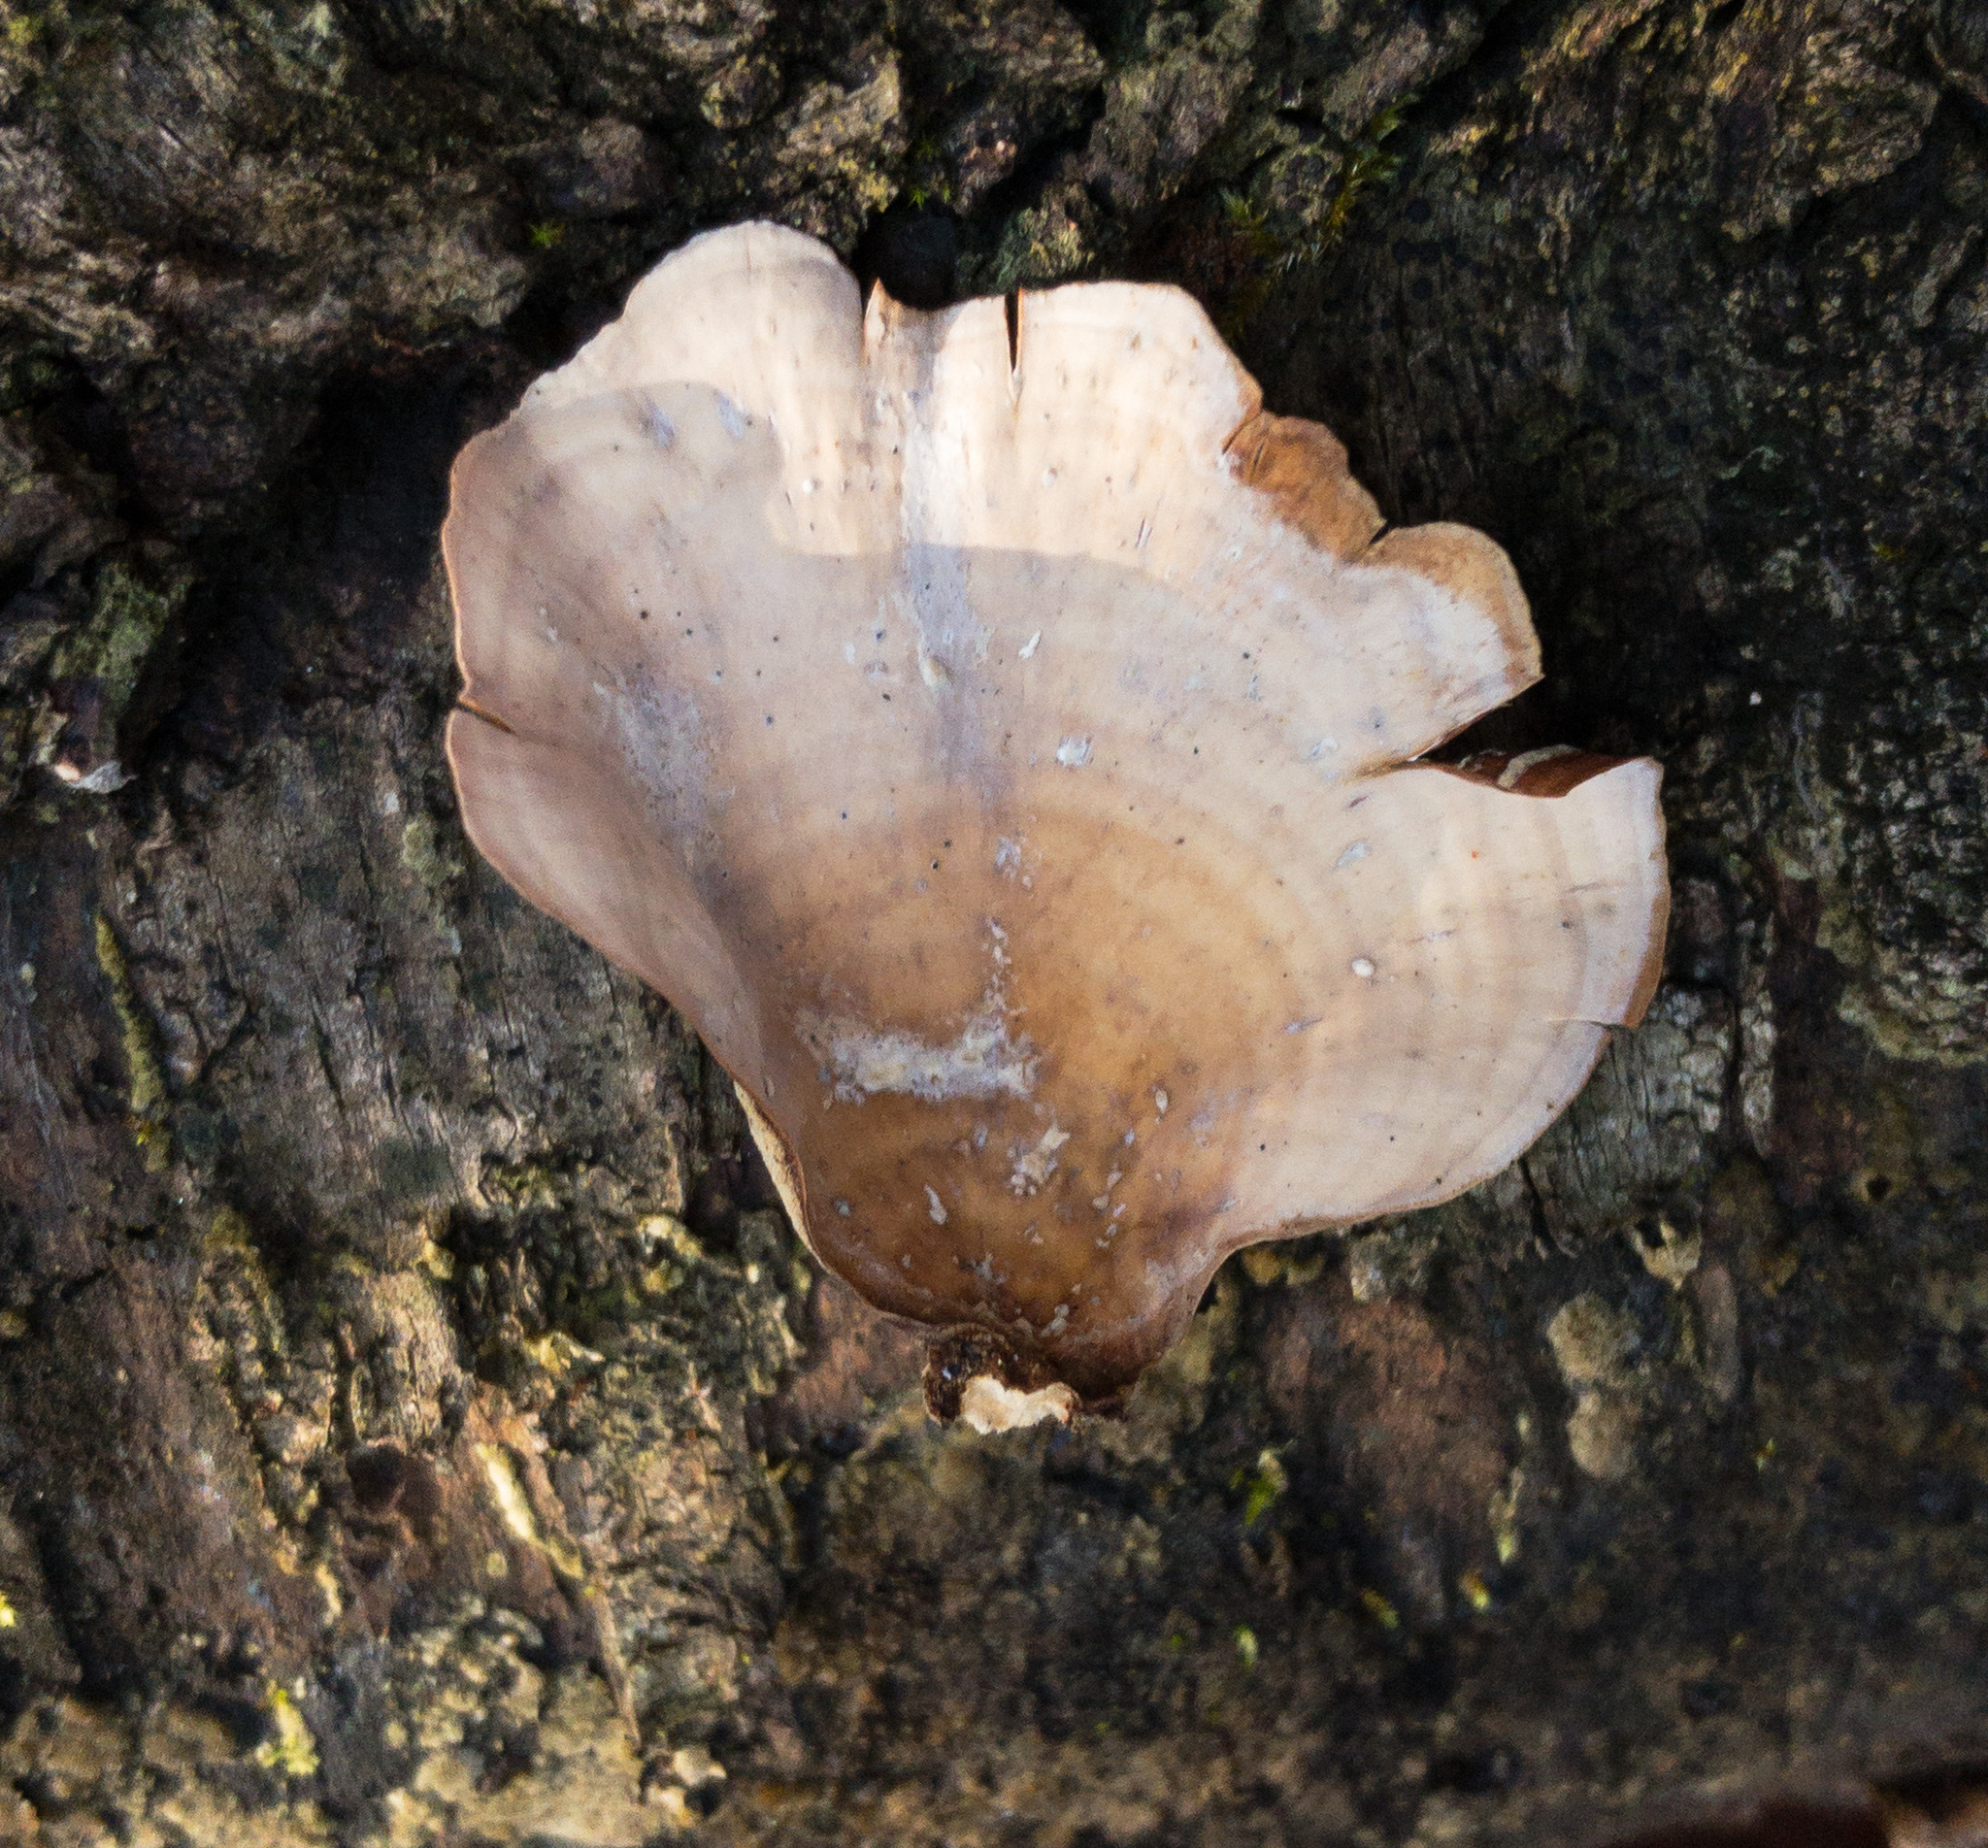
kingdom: Fungi
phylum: Basidiomycota
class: Agaricomycetes
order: Russulales
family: Stereaceae
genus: Stereum
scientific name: Stereum lobatum
